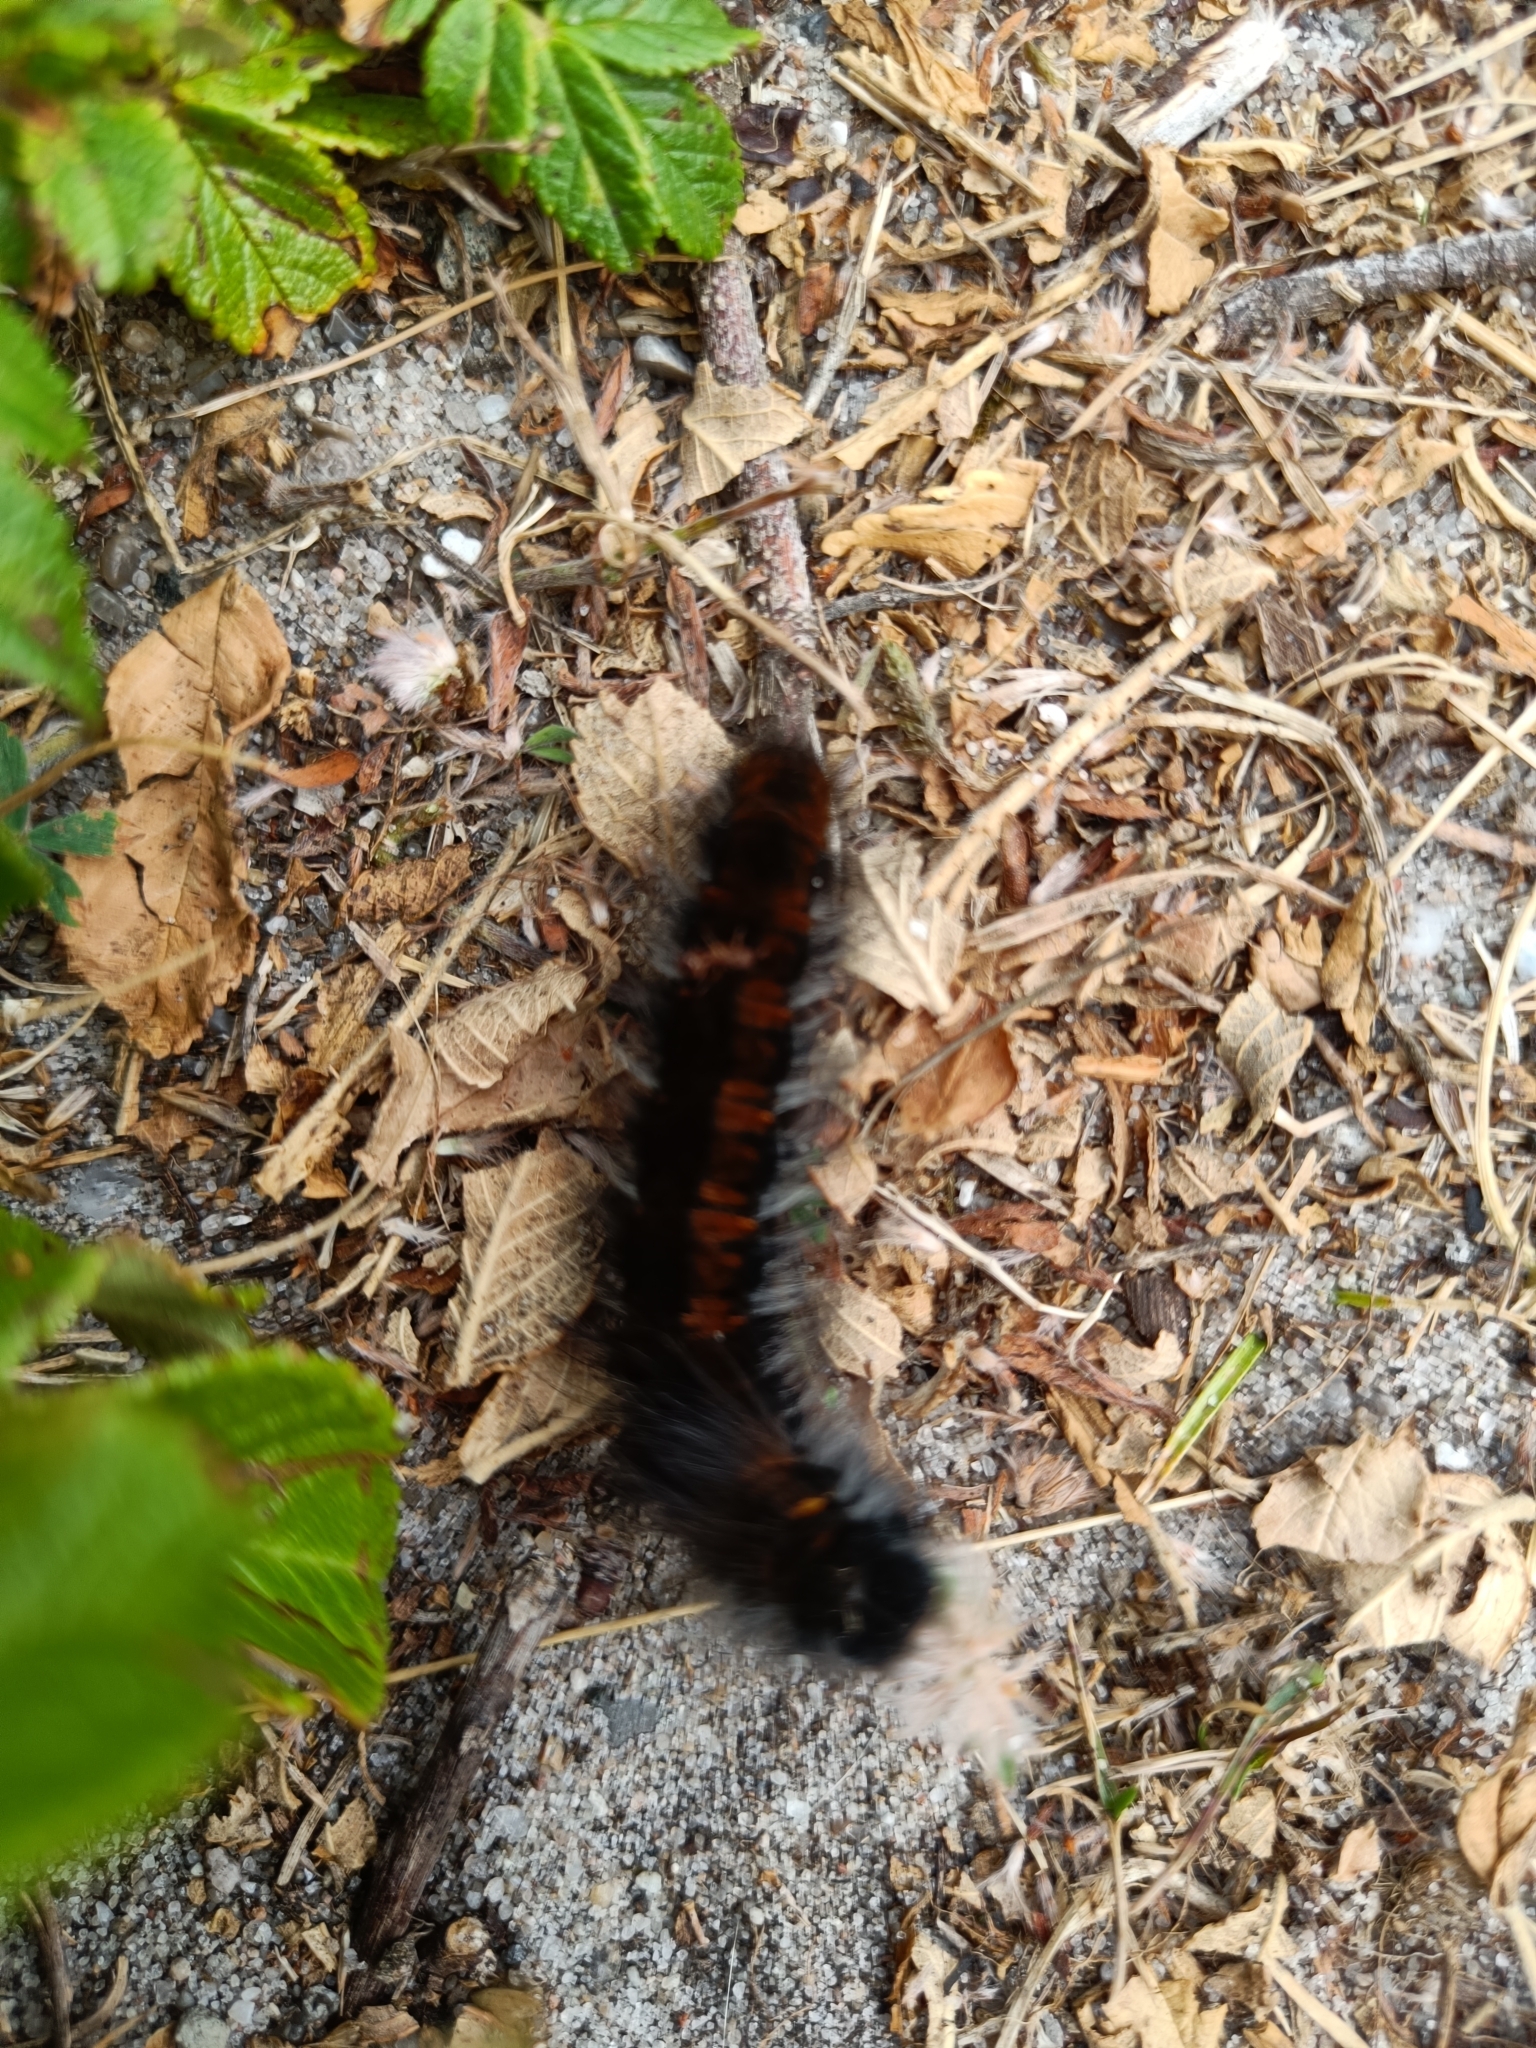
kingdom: Animalia
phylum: Arthropoda
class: Insecta
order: Lepidoptera
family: Lasiocampidae
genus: Macrothylacia
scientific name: Macrothylacia rubi
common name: Fox moth
